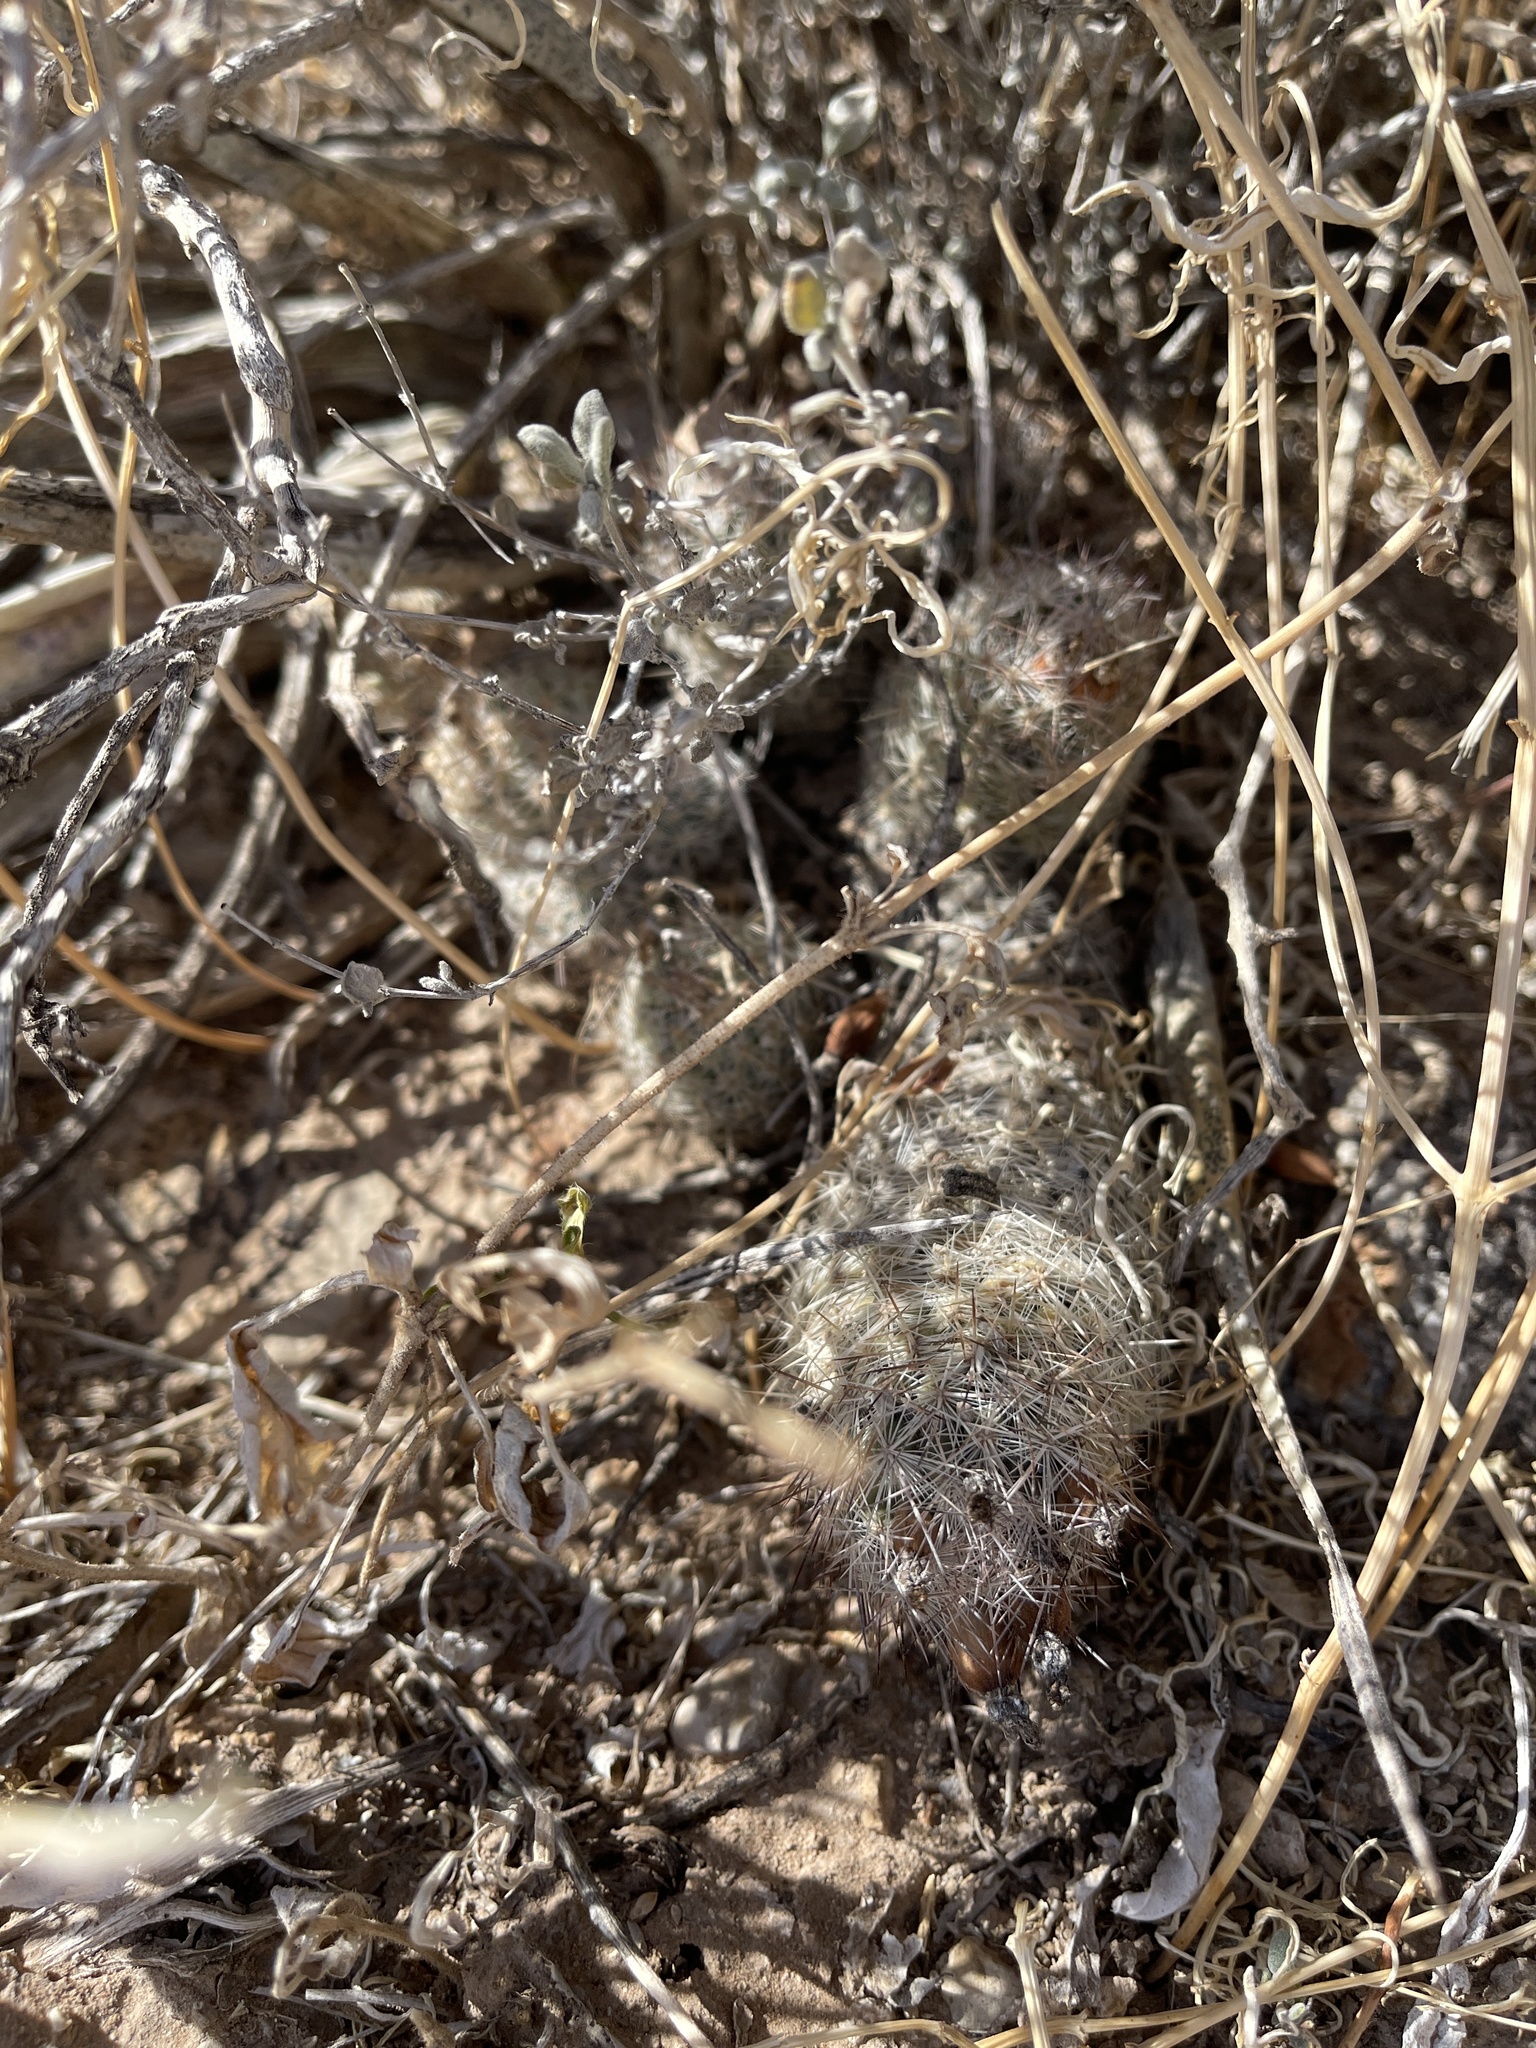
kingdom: Plantae
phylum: Tracheophyta
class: Magnoliopsida
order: Caryophyllales
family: Cactaceae
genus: Pelecyphora
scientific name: Pelecyphora tuberculosa
